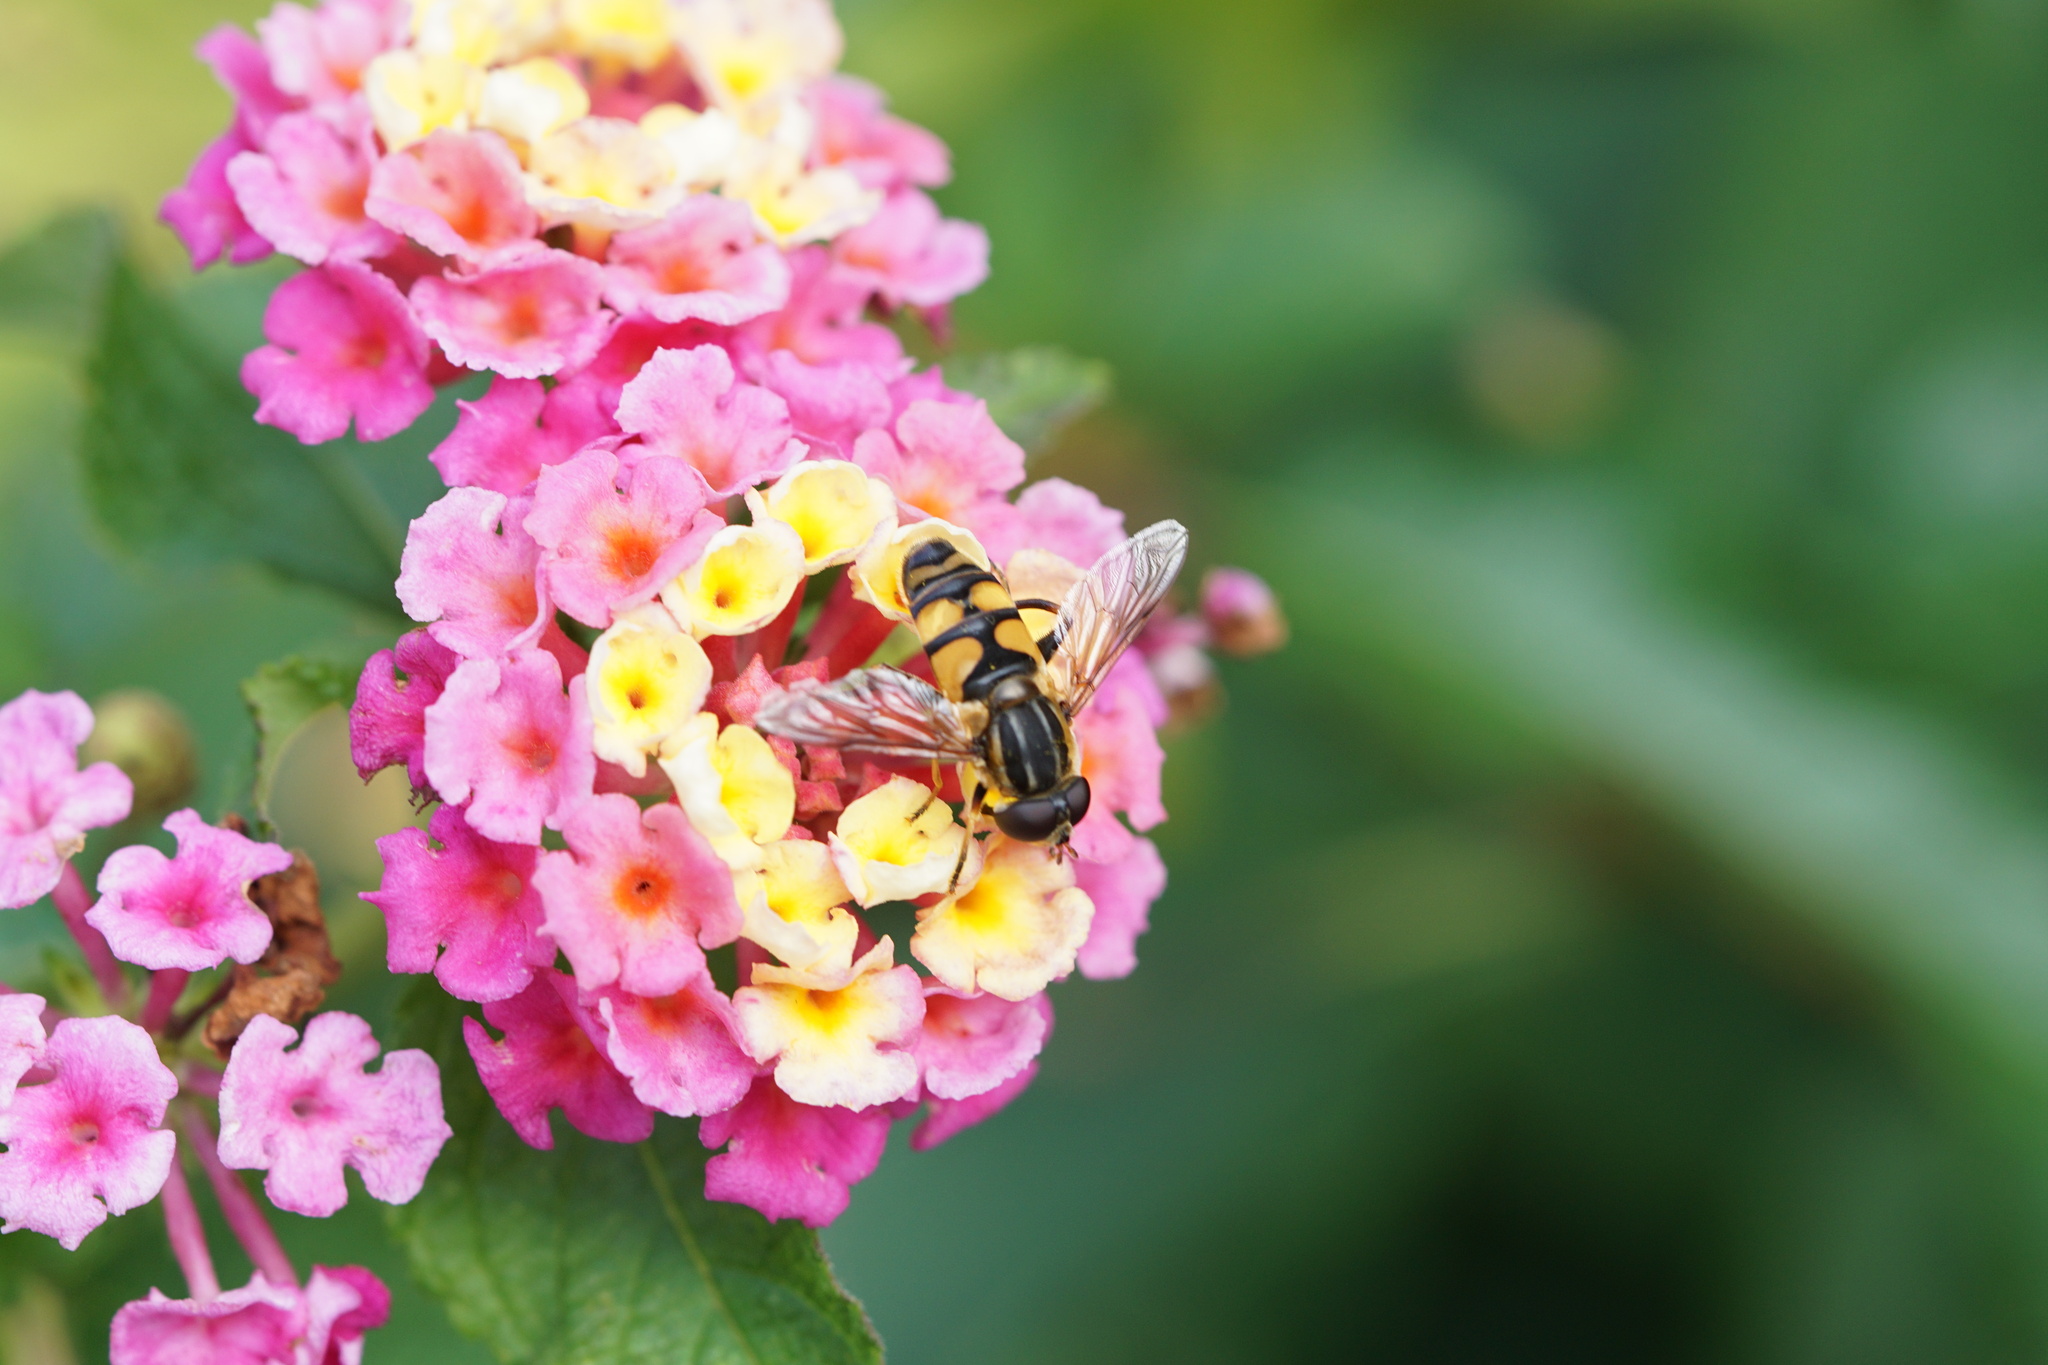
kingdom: Animalia
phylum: Arthropoda
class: Insecta
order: Diptera
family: Syrphidae
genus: Helophilus
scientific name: Helophilus fasciatus
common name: Narrow-headed marsh fly
